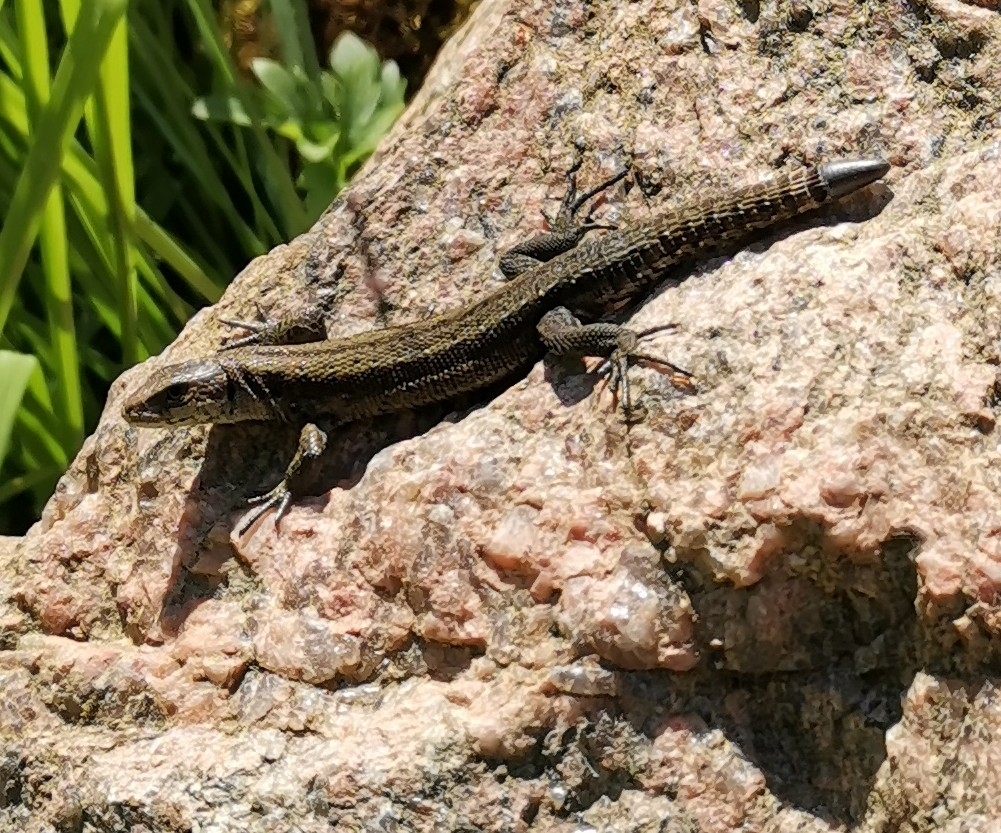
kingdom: Animalia
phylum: Chordata
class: Squamata
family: Lacertidae
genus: Zootoca
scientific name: Zootoca vivipara
